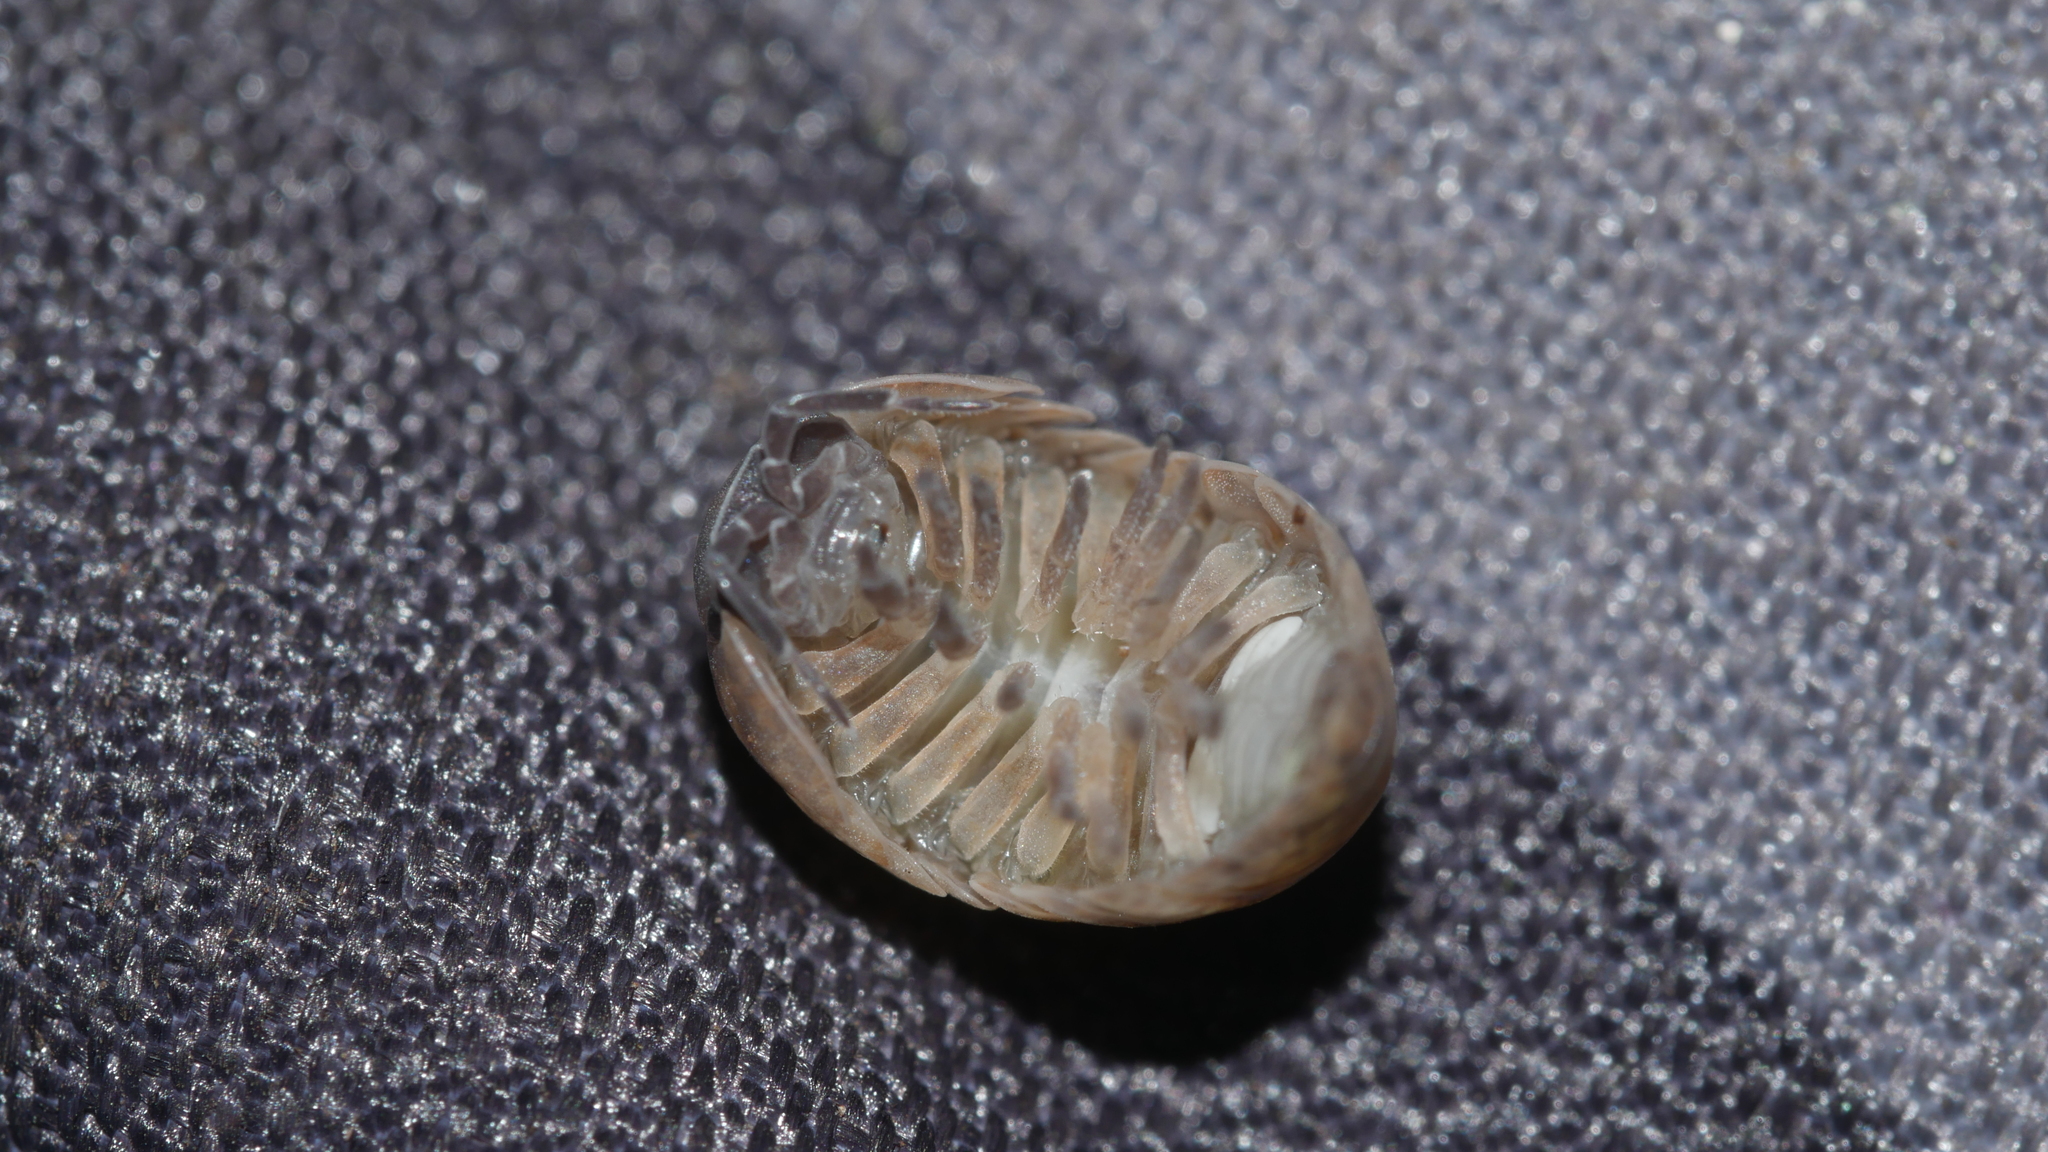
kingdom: Animalia
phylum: Arthropoda
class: Malacostraca
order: Isopoda
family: Armadillidiidae
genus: Armadillidium
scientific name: Armadillidium vulgare
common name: Common pill woodlouse
